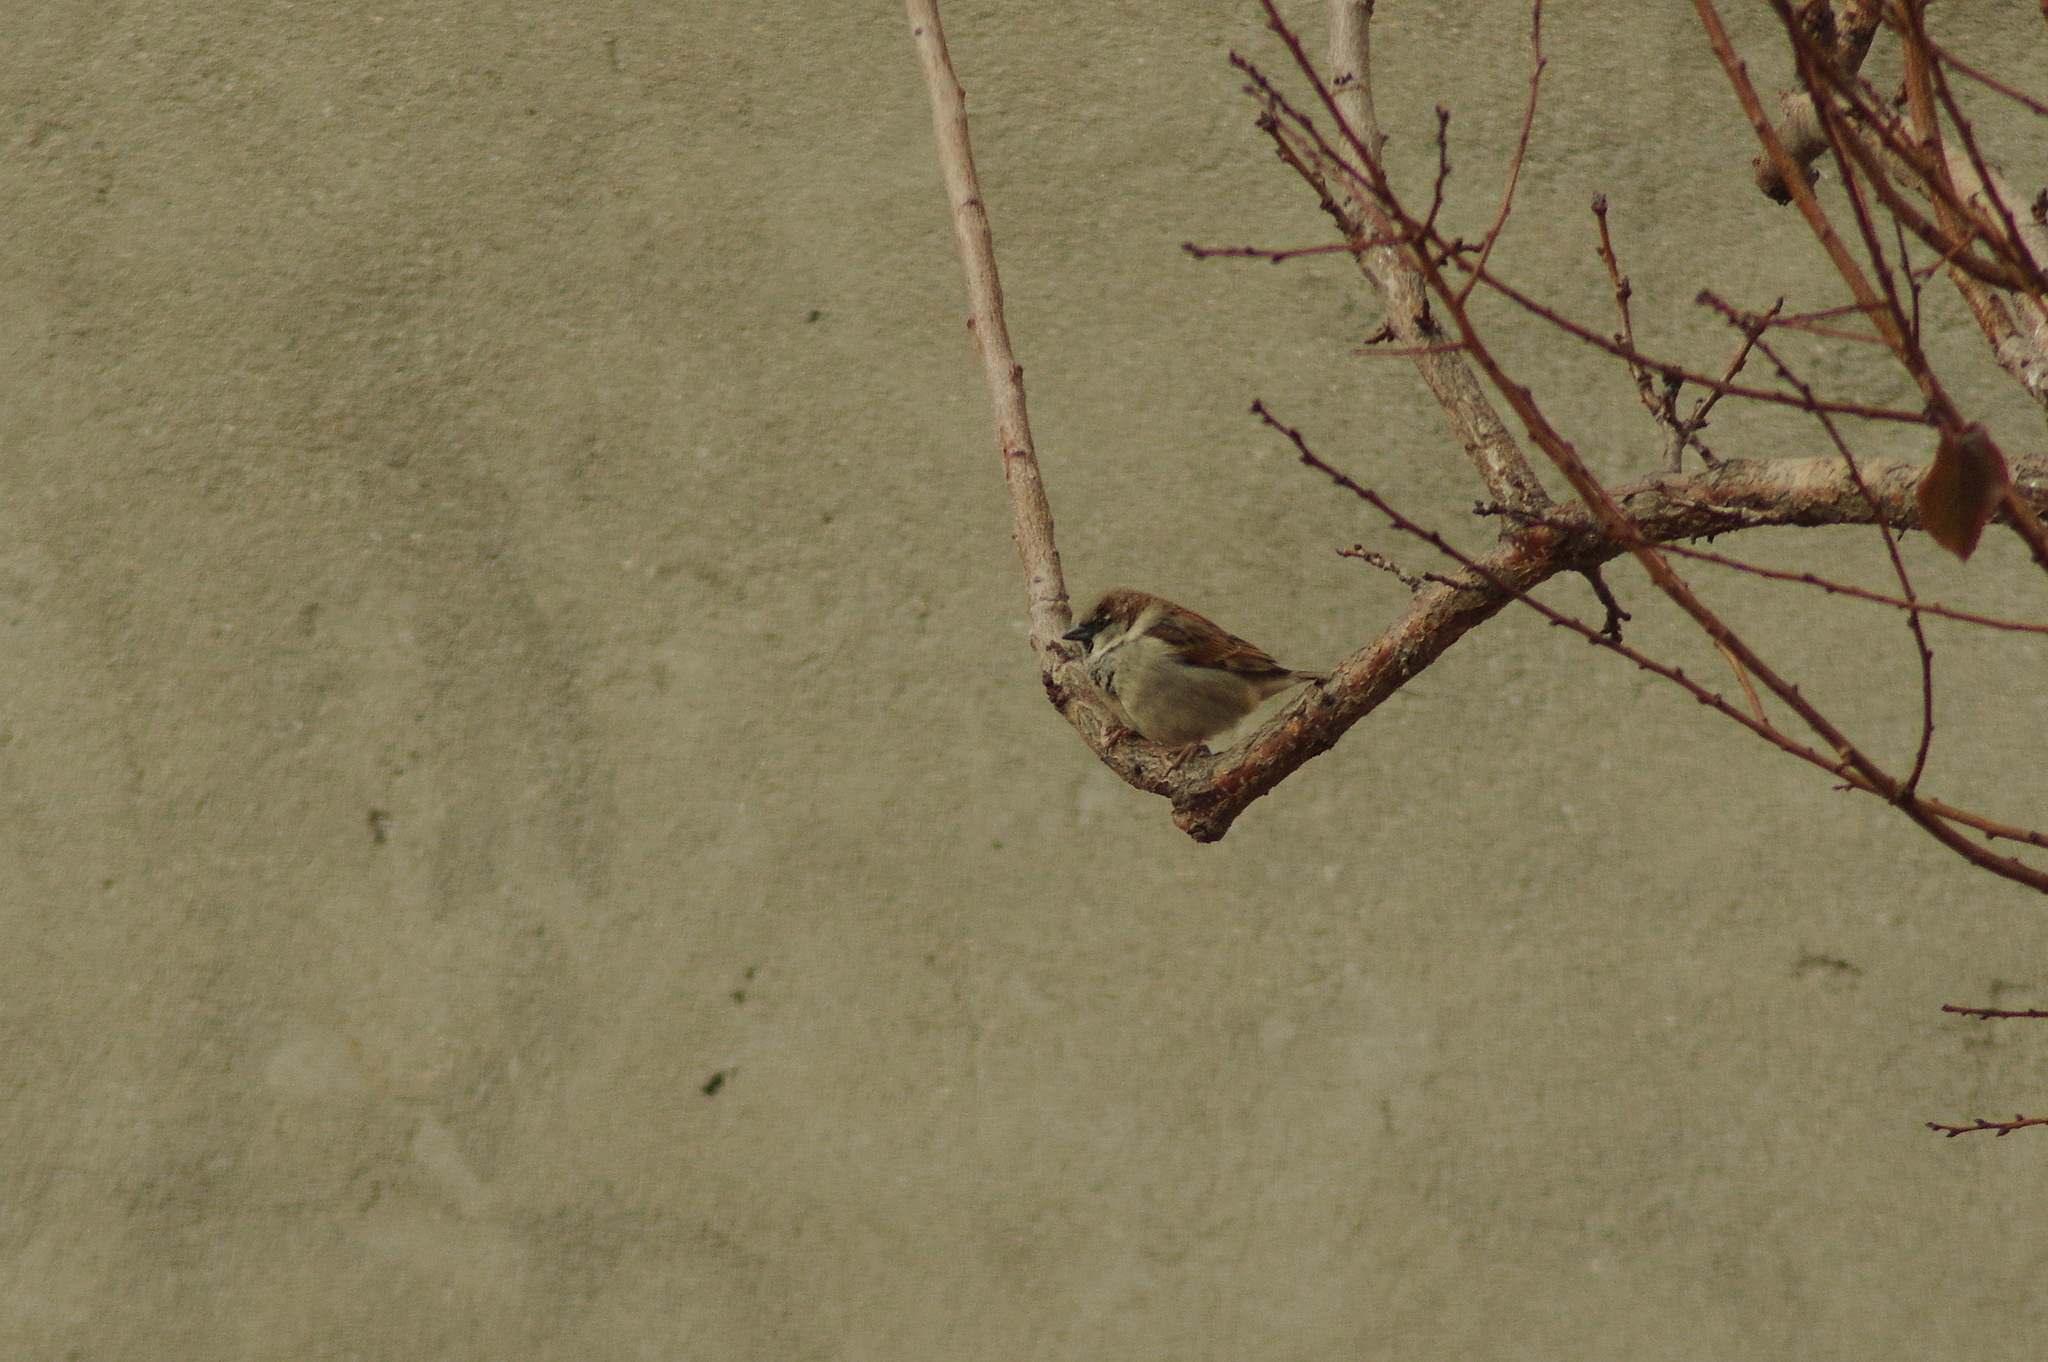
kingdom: Animalia
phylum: Chordata
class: Aves
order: Passeriformes
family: Passeridae
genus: Passer
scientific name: Passer domesticus
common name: House sparrow
